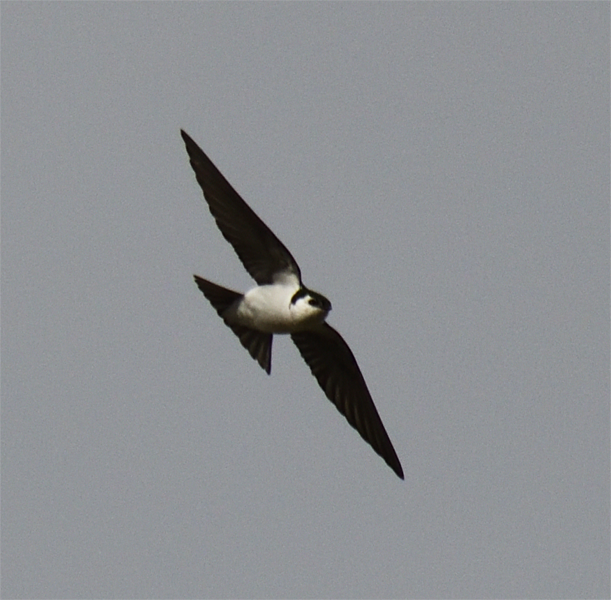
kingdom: Animalia
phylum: Chordata
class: Aves
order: Passeriformes
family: Hirundinidae
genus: Tachycineta
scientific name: Tachycineta thalassina
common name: Violet-green swallow
